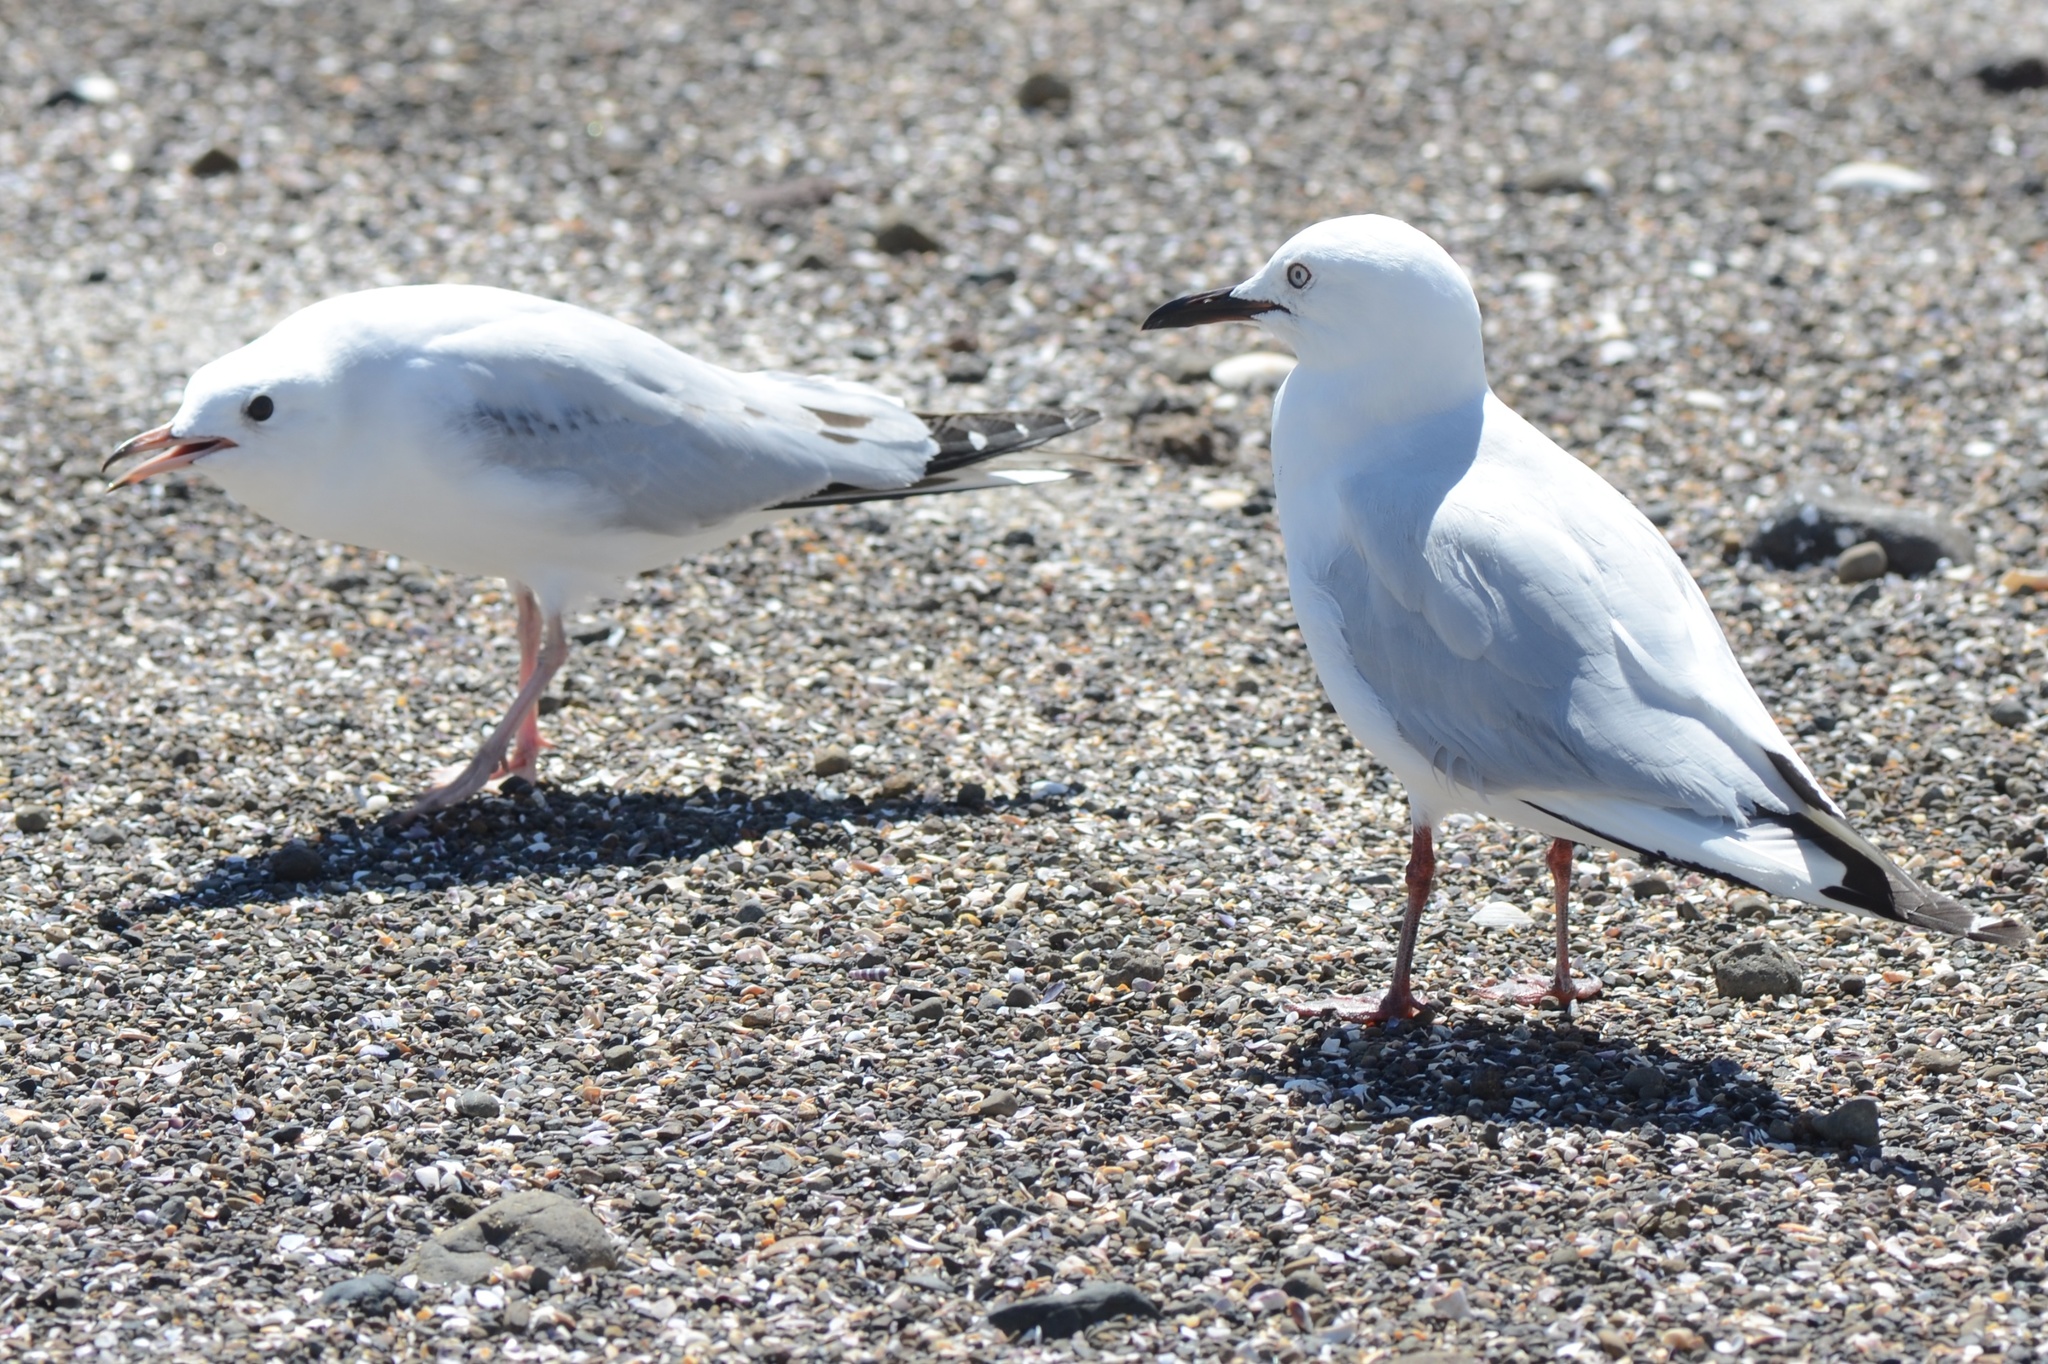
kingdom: Animalia
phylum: Chordata
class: Aves
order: Charadriiformes
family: Laridae
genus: Chroicocephalus
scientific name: Chroicocephalus bulleri
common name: Black-billed gull
